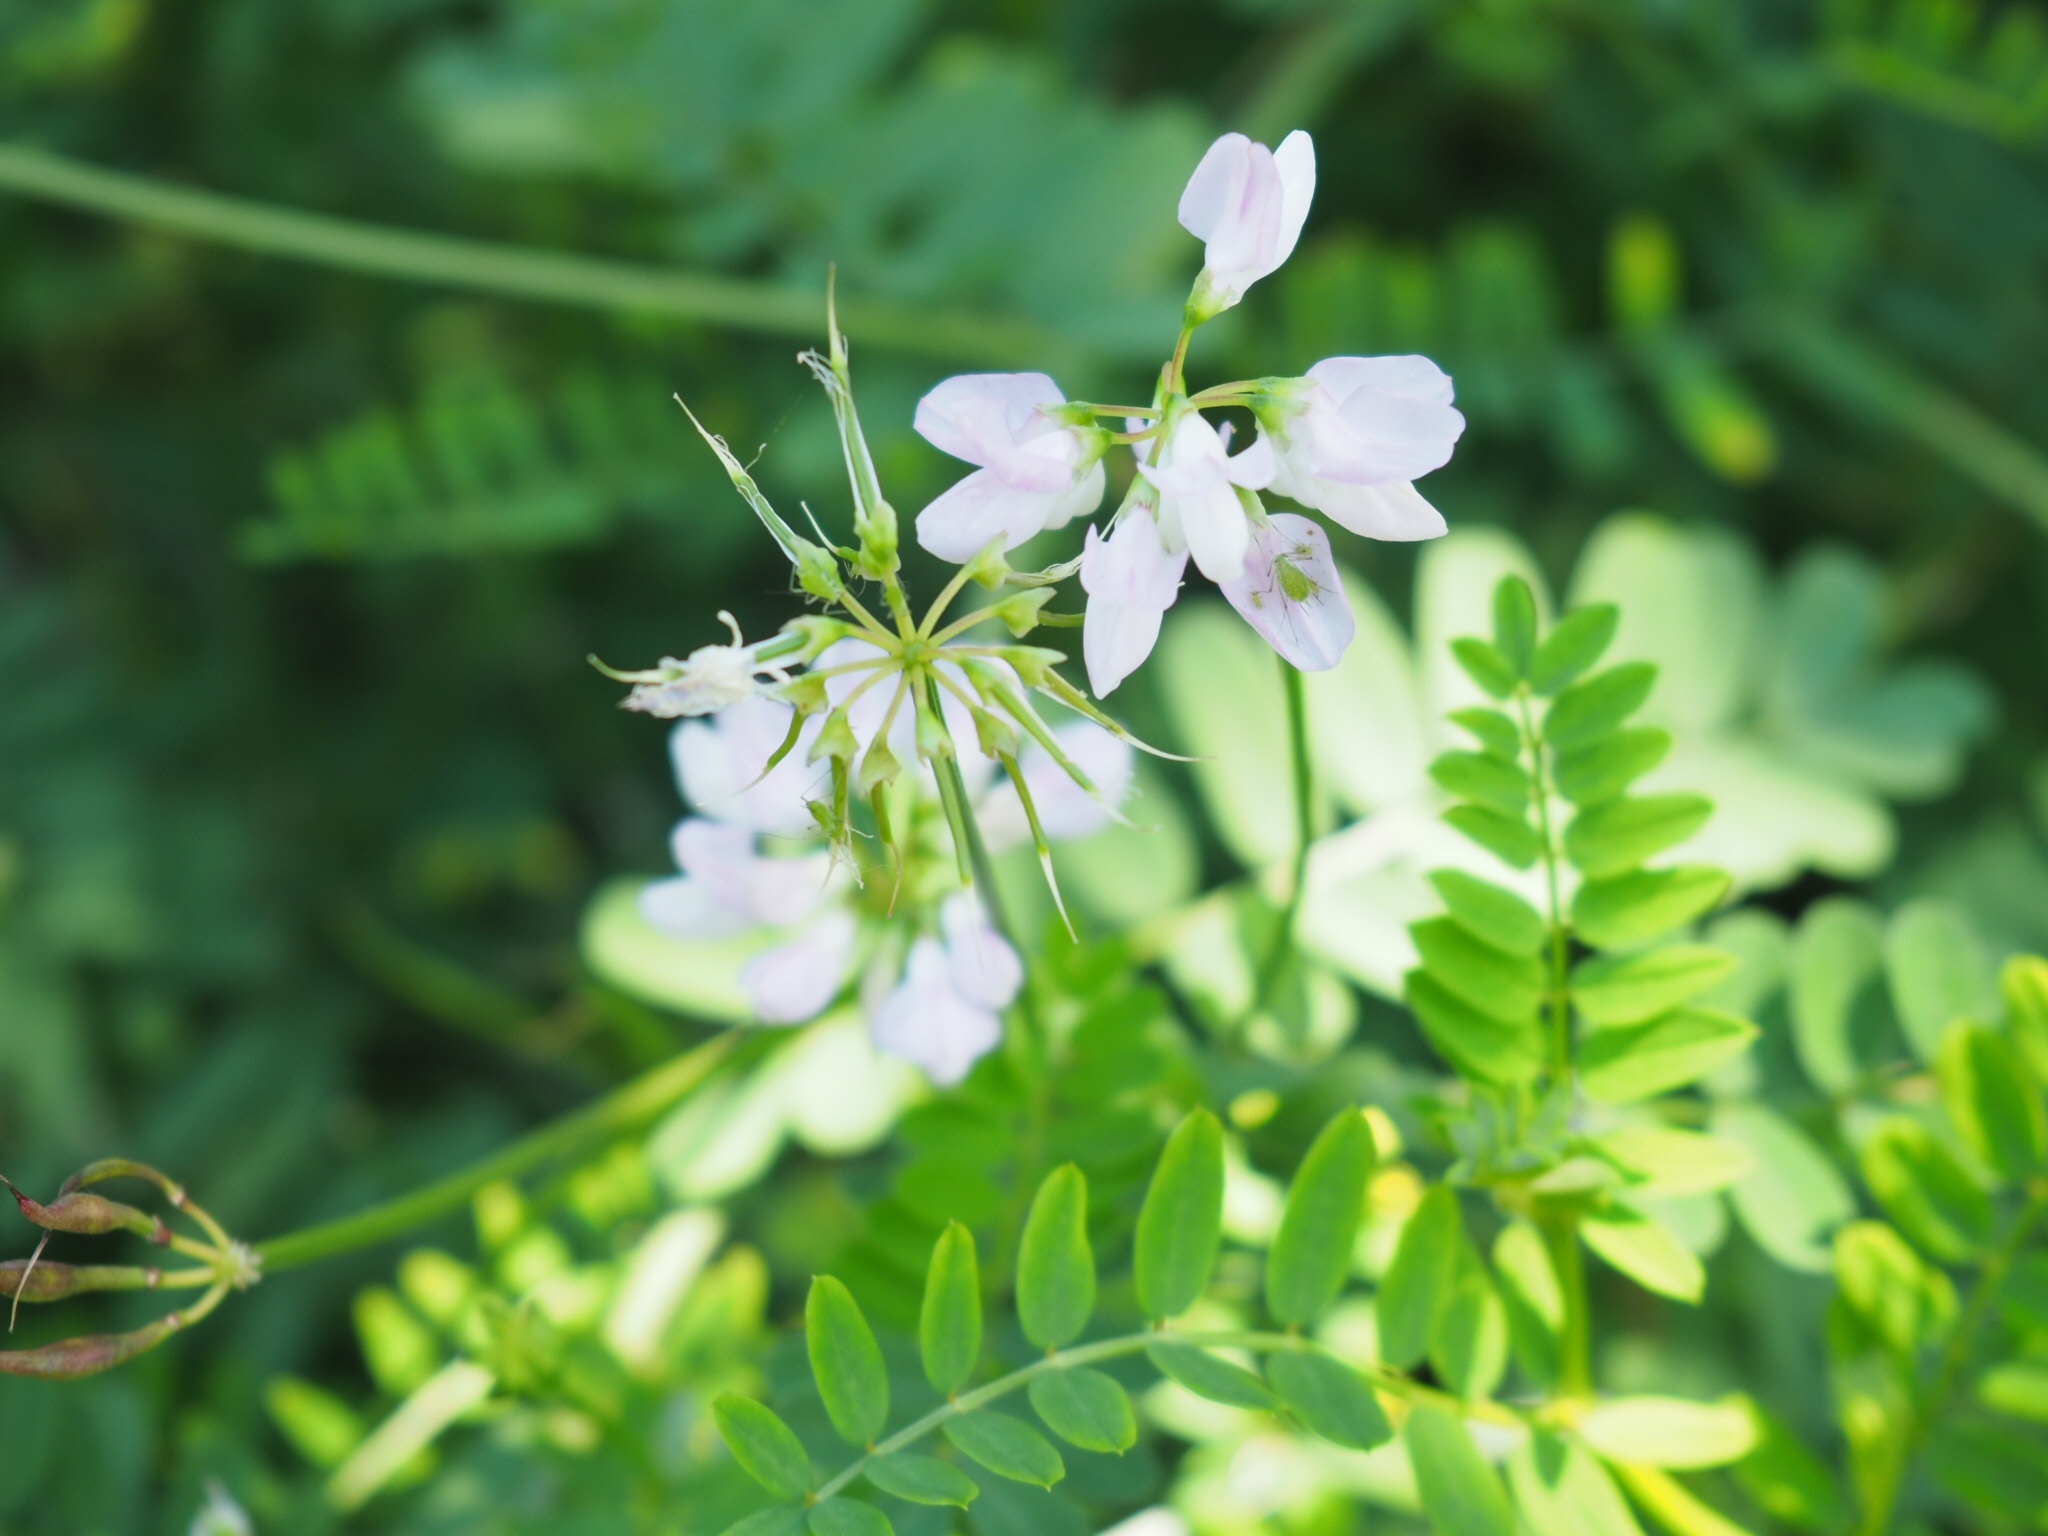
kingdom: Plantae
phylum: Tracheophyta
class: Magnoliopsida
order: Fabales
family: Fabaceae
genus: Coronilla
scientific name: Coronilla varia
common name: Crownvetch
